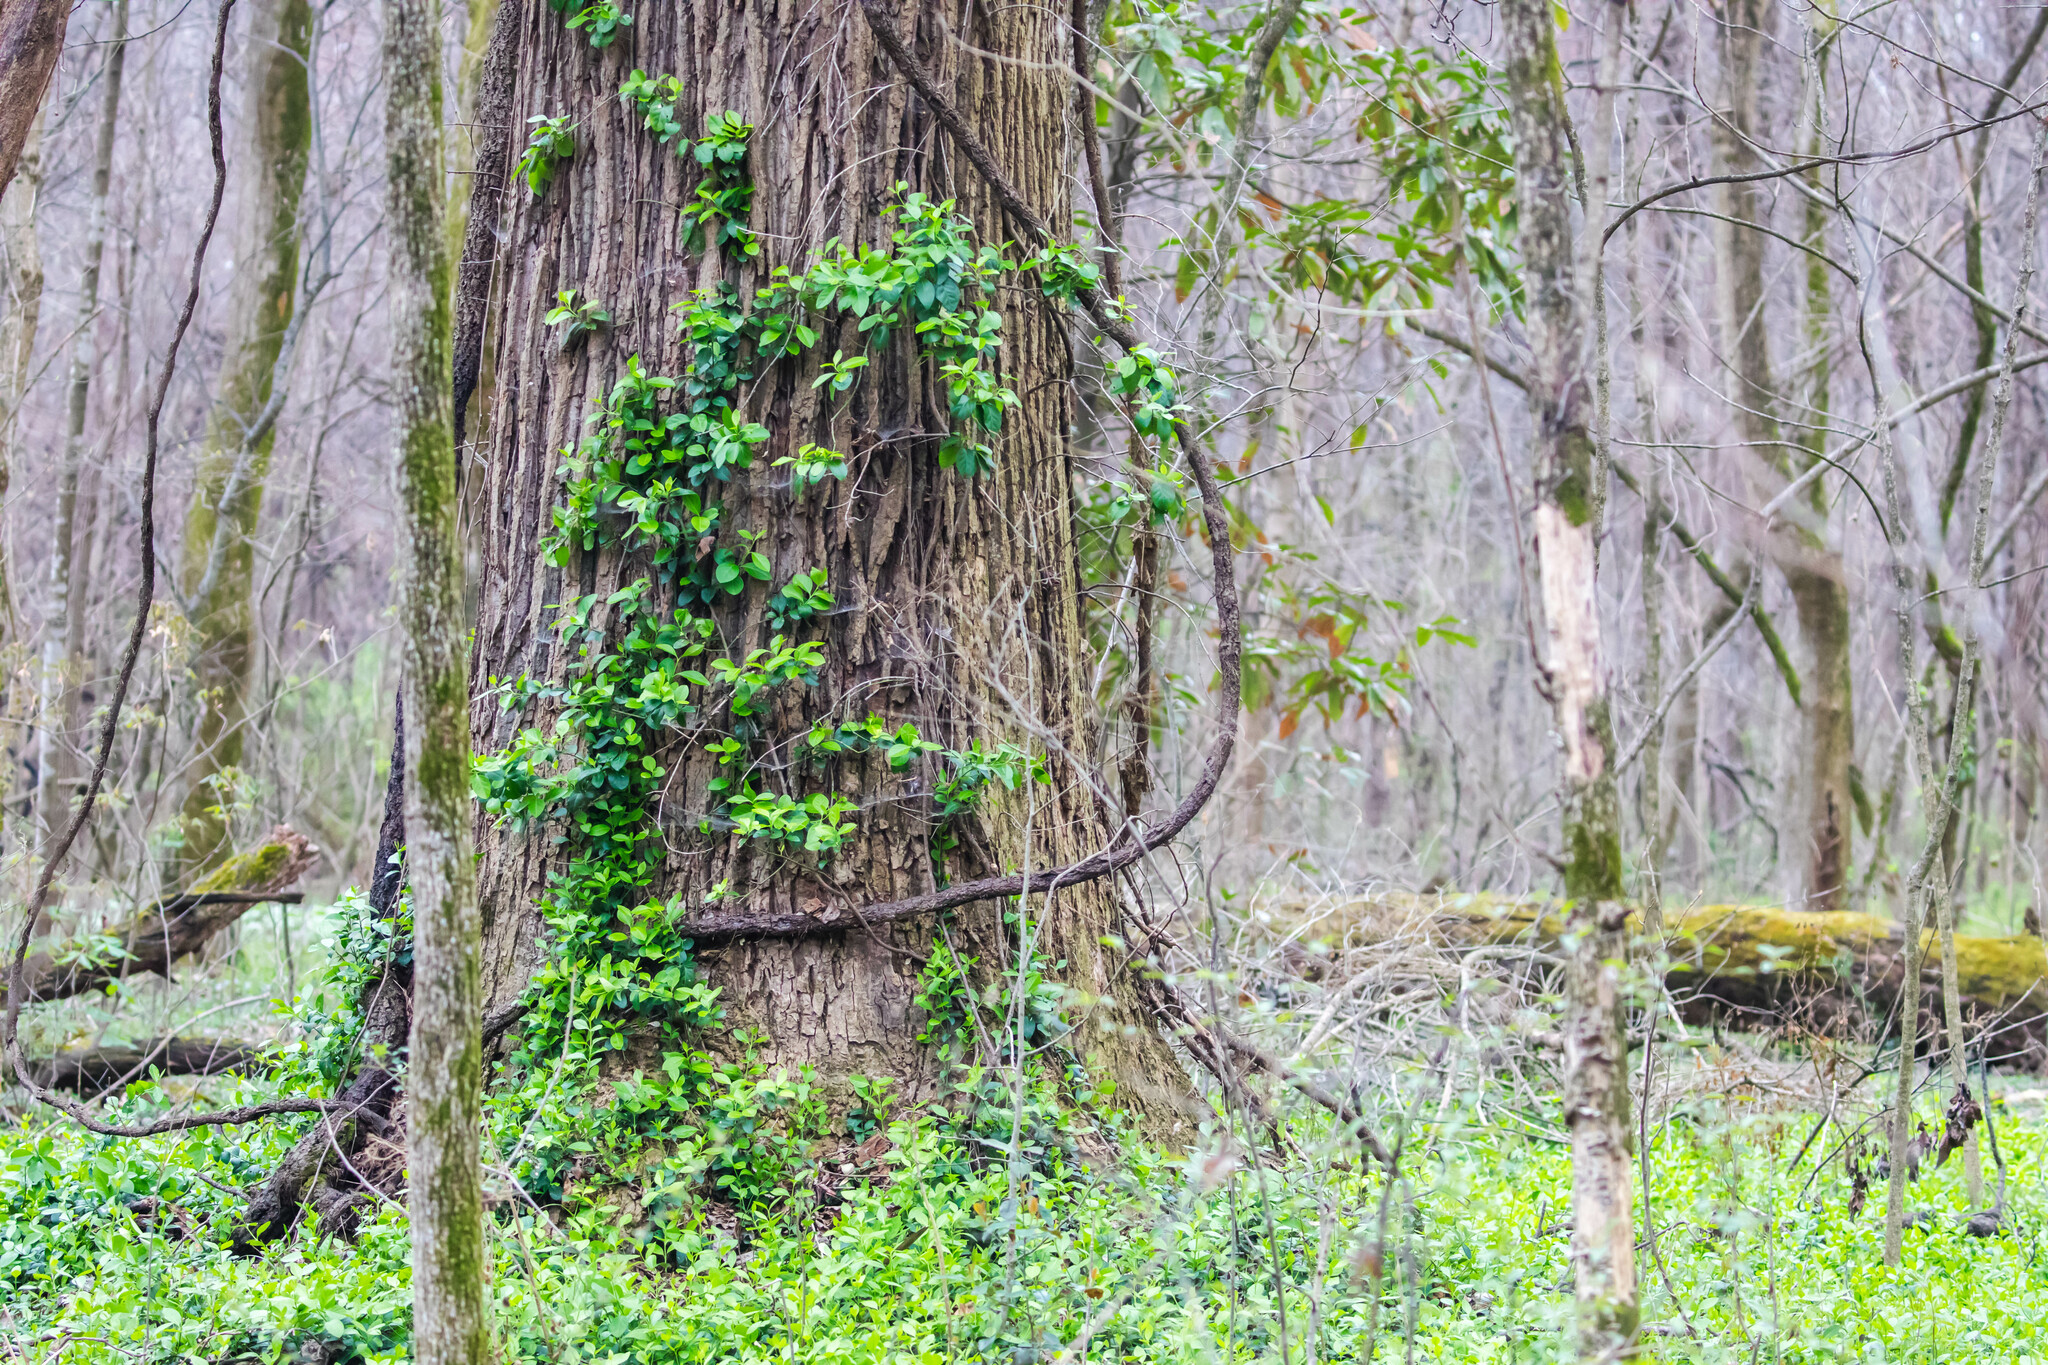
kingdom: Plantae
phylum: Tracheophyta
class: Magnoliopsida
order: Celastrales
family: Celastraceae
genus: Euonymus
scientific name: Euonymus fortunei
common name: Climbing euonymus
